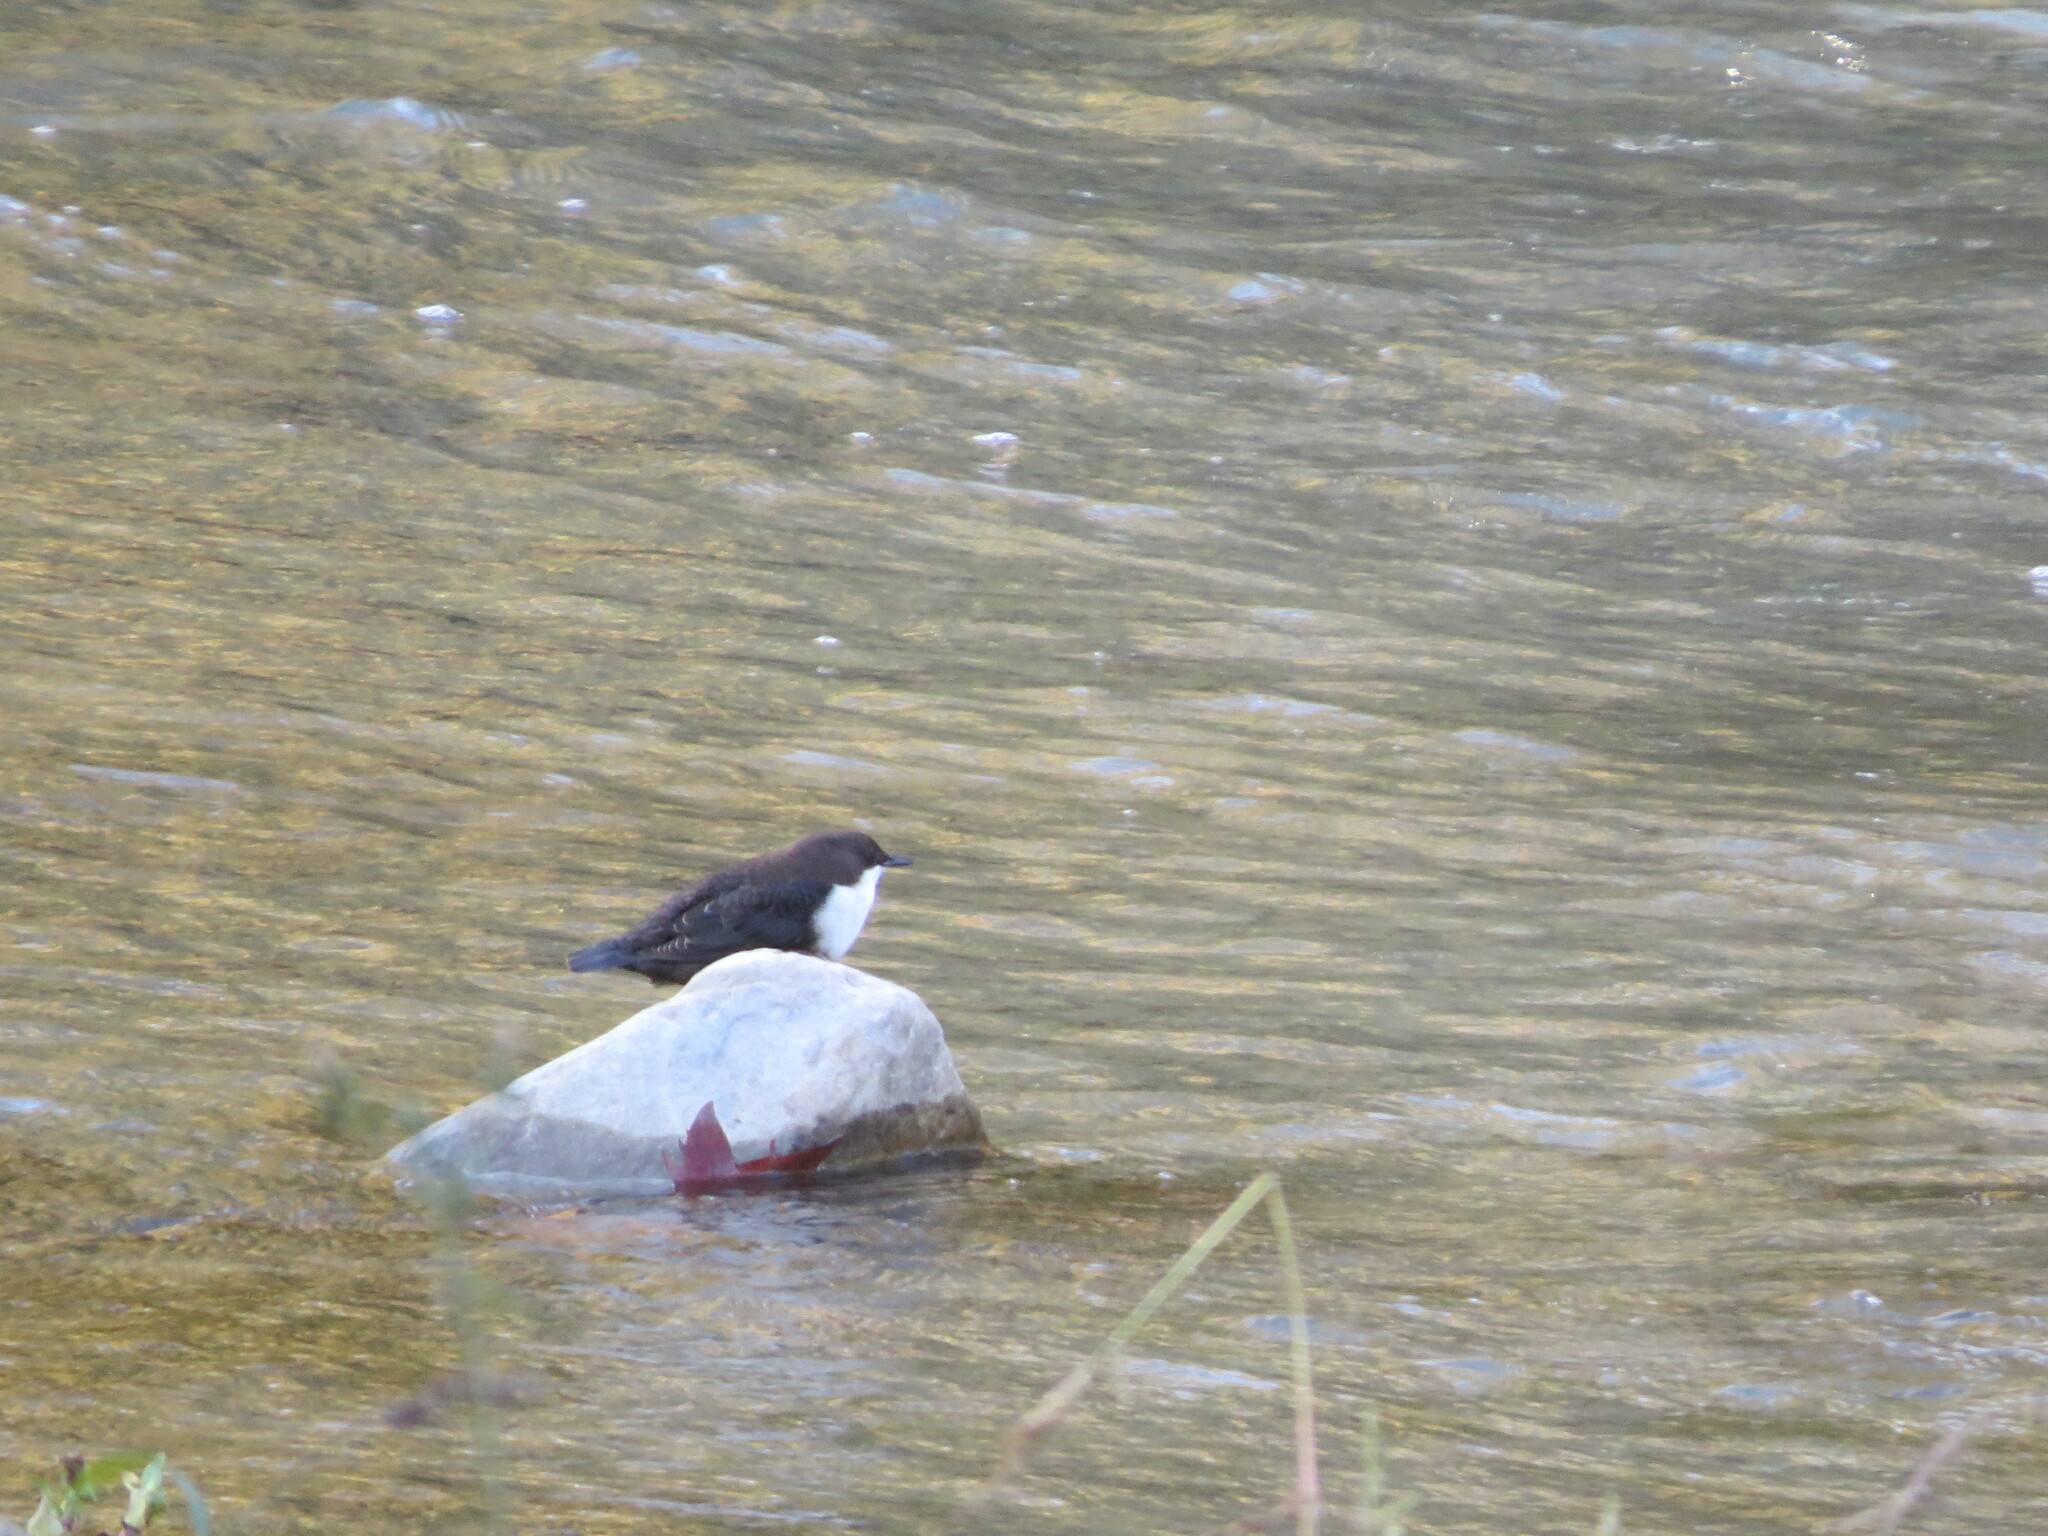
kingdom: Animalia
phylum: Chordata
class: Aves
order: Passeriformes
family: Cinclidae
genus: Cinclus
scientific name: Cinclus cinclus
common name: White-throated dipper
